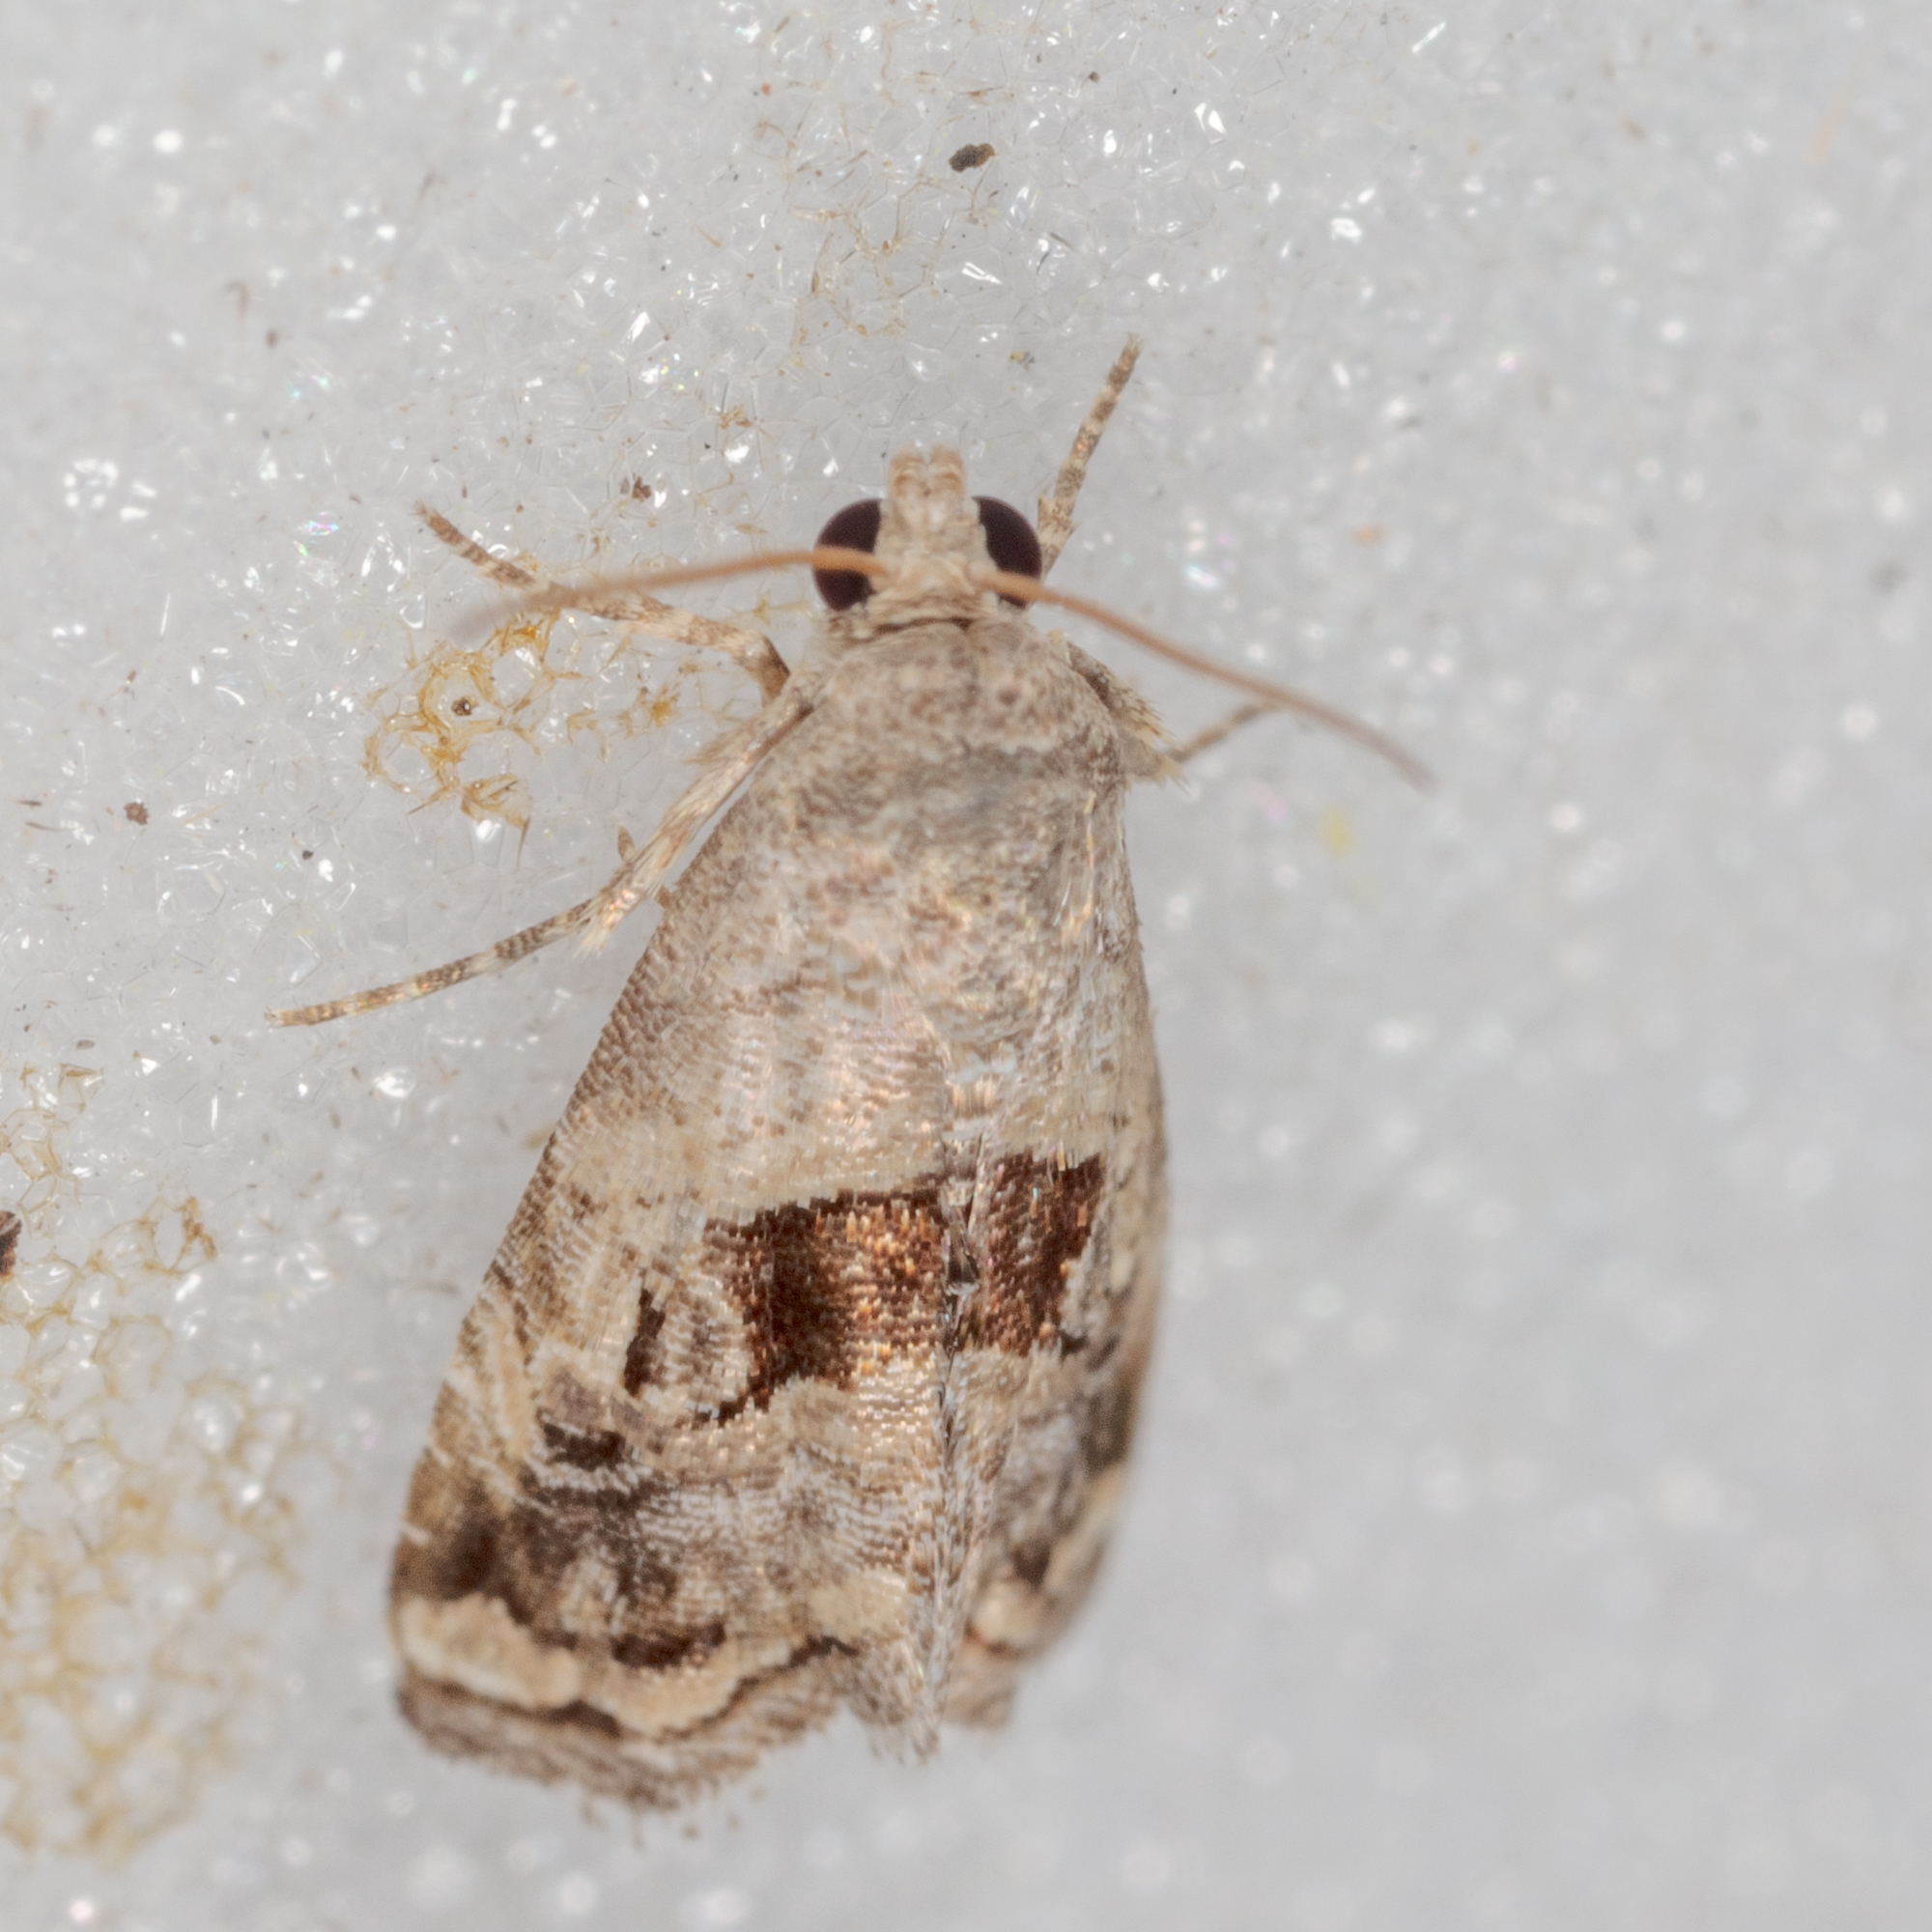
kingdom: Animalia
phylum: Arthropoda
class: Insecta
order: Lepidoptera
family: Noctuidae
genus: Tripudia
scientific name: Tripudia quadrifera
